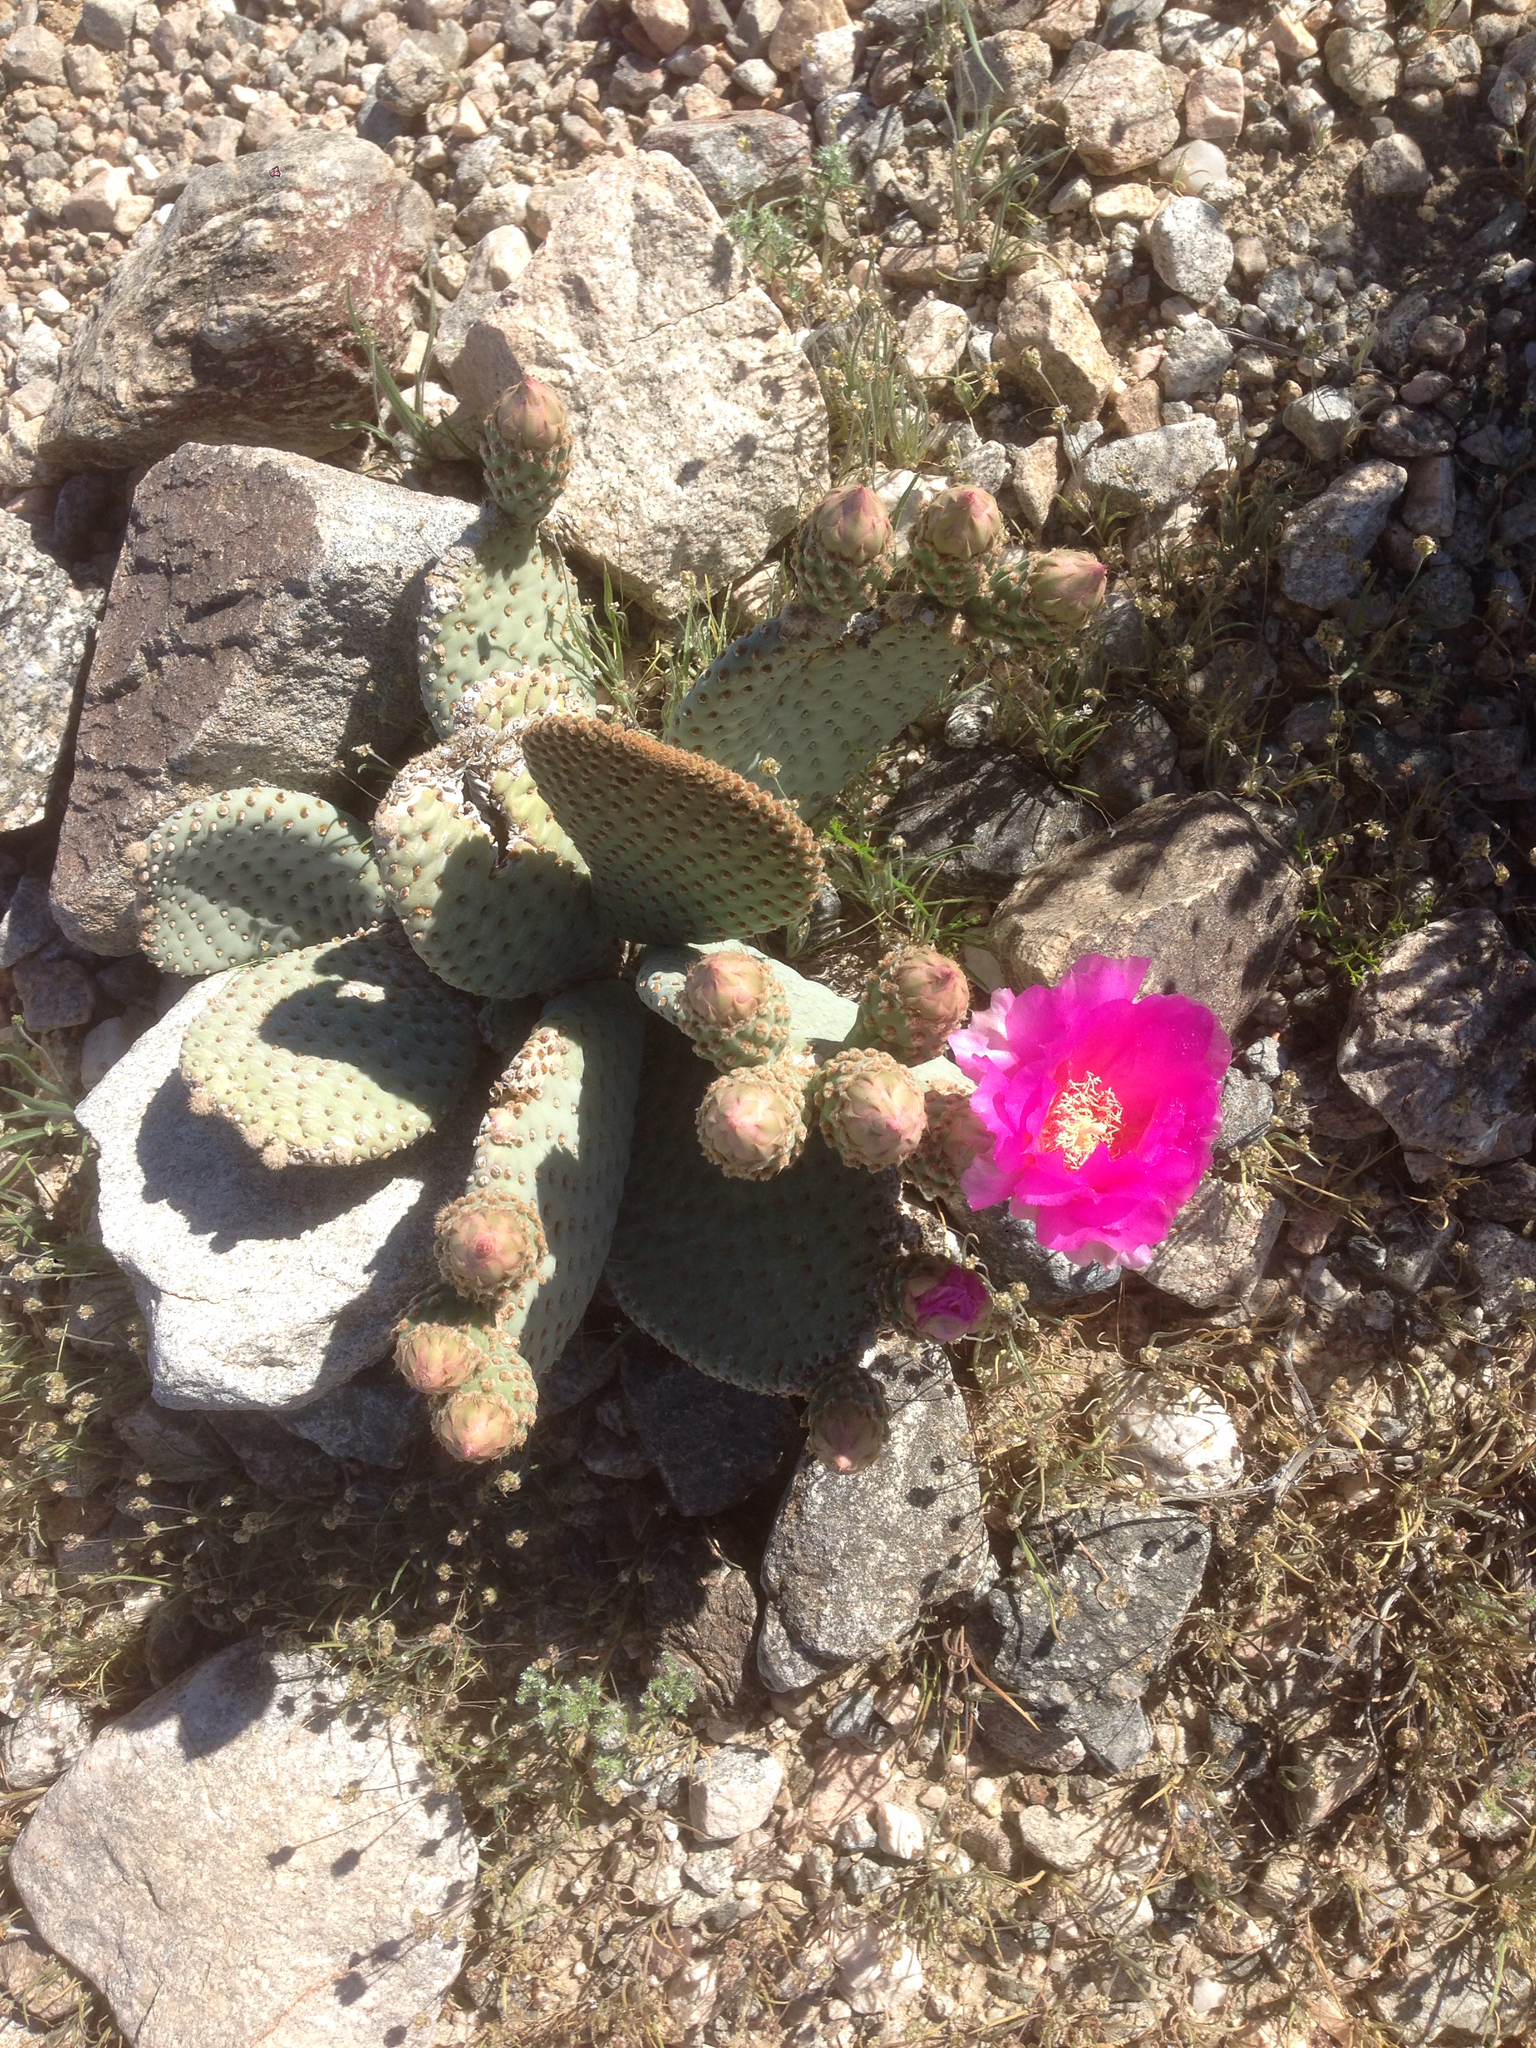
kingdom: Plantae
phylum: Tracheophyta
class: Magnoliopsida
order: Caryophyllales
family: Cactaceae
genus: Opuntia
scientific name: Opuntia basilaris
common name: Beavertail prickly-pear
